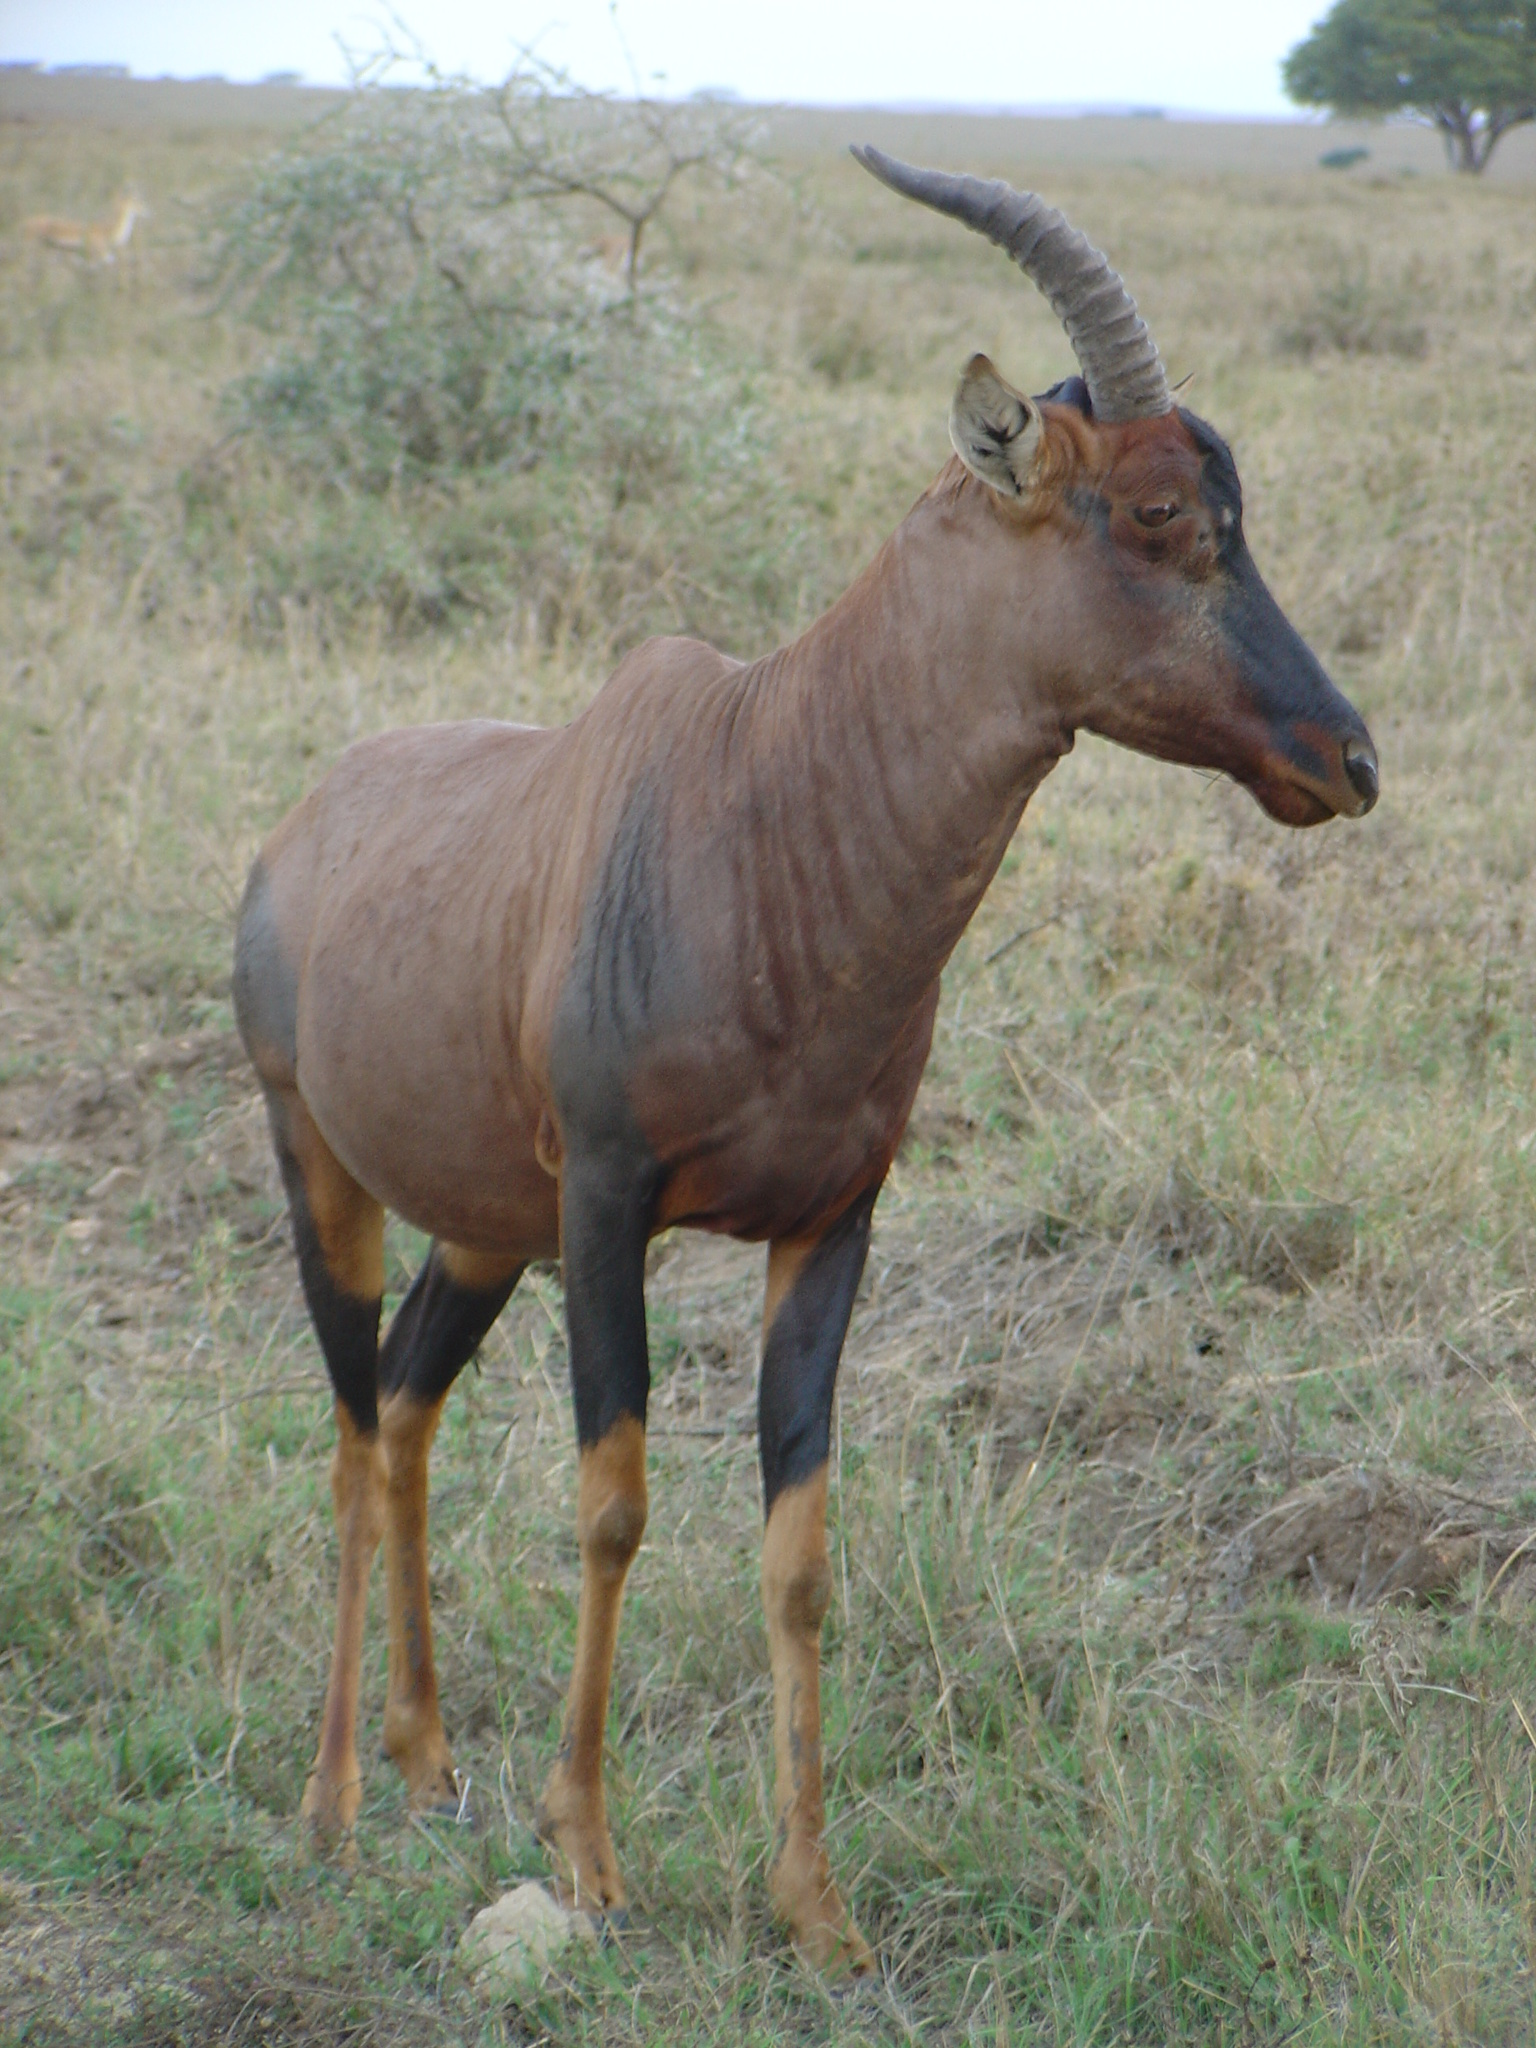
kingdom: Animalia
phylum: Chordata
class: Mammalia
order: Artiodactyla
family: Bovidae
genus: Damaliscus
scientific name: Damaliscus korrigum
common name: Topi
